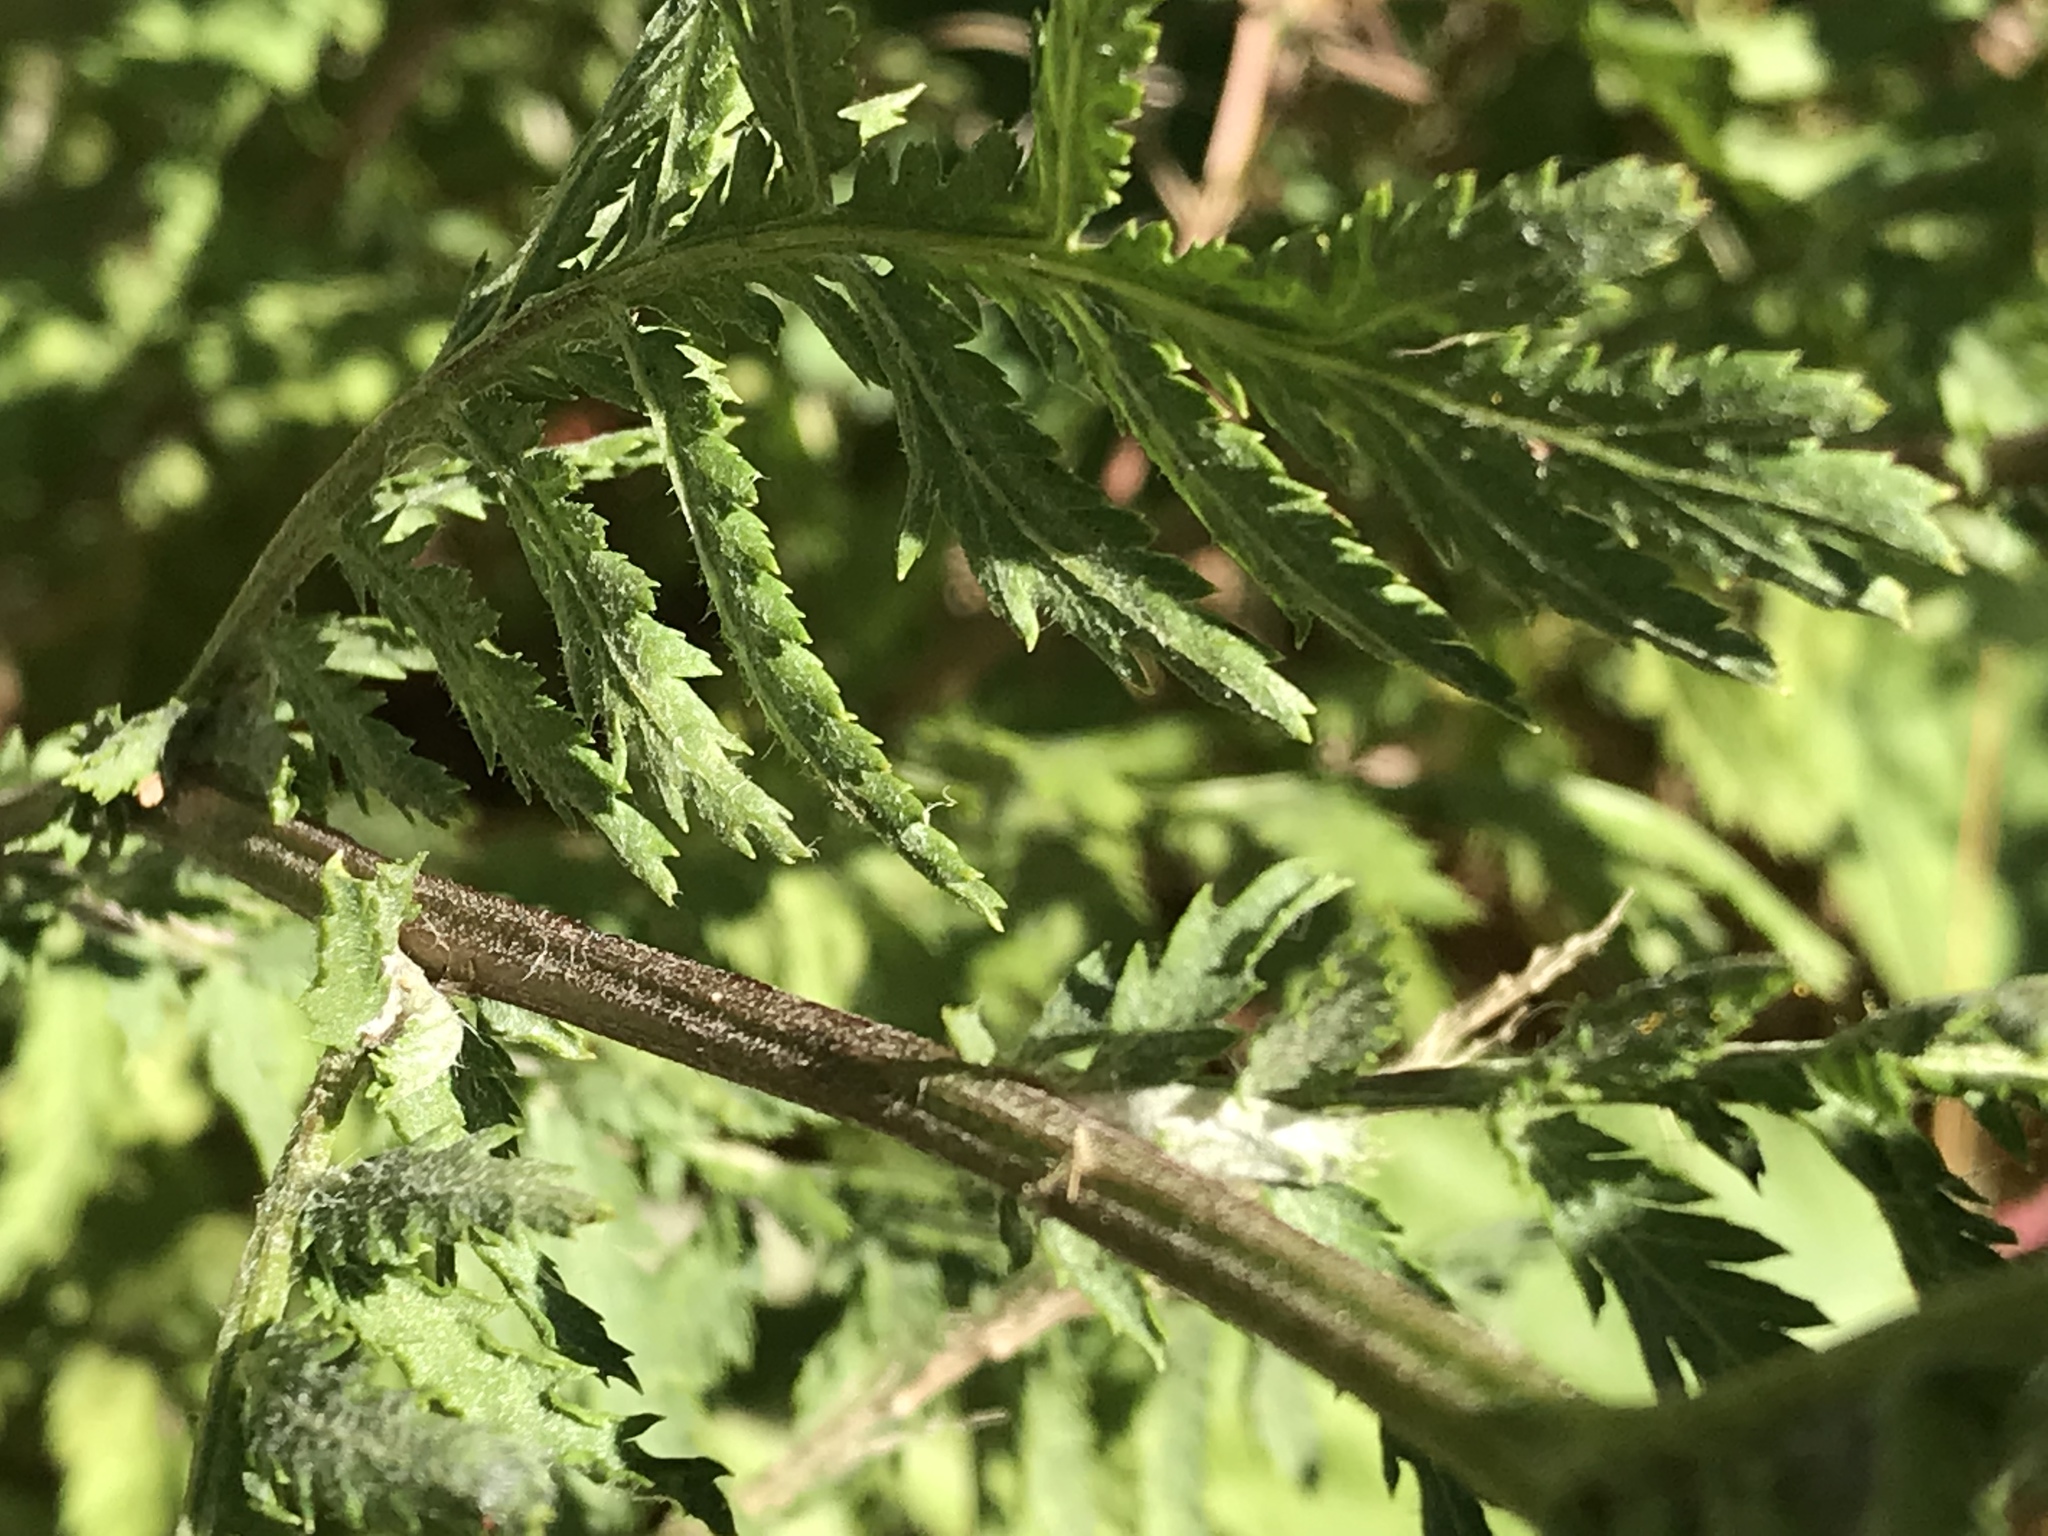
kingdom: Plantae
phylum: Tracheophyta
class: Magnoliopsida
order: Asterales
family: Asteraceae
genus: Tanacetum
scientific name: Tanacetum vulgare
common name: Common tansy
